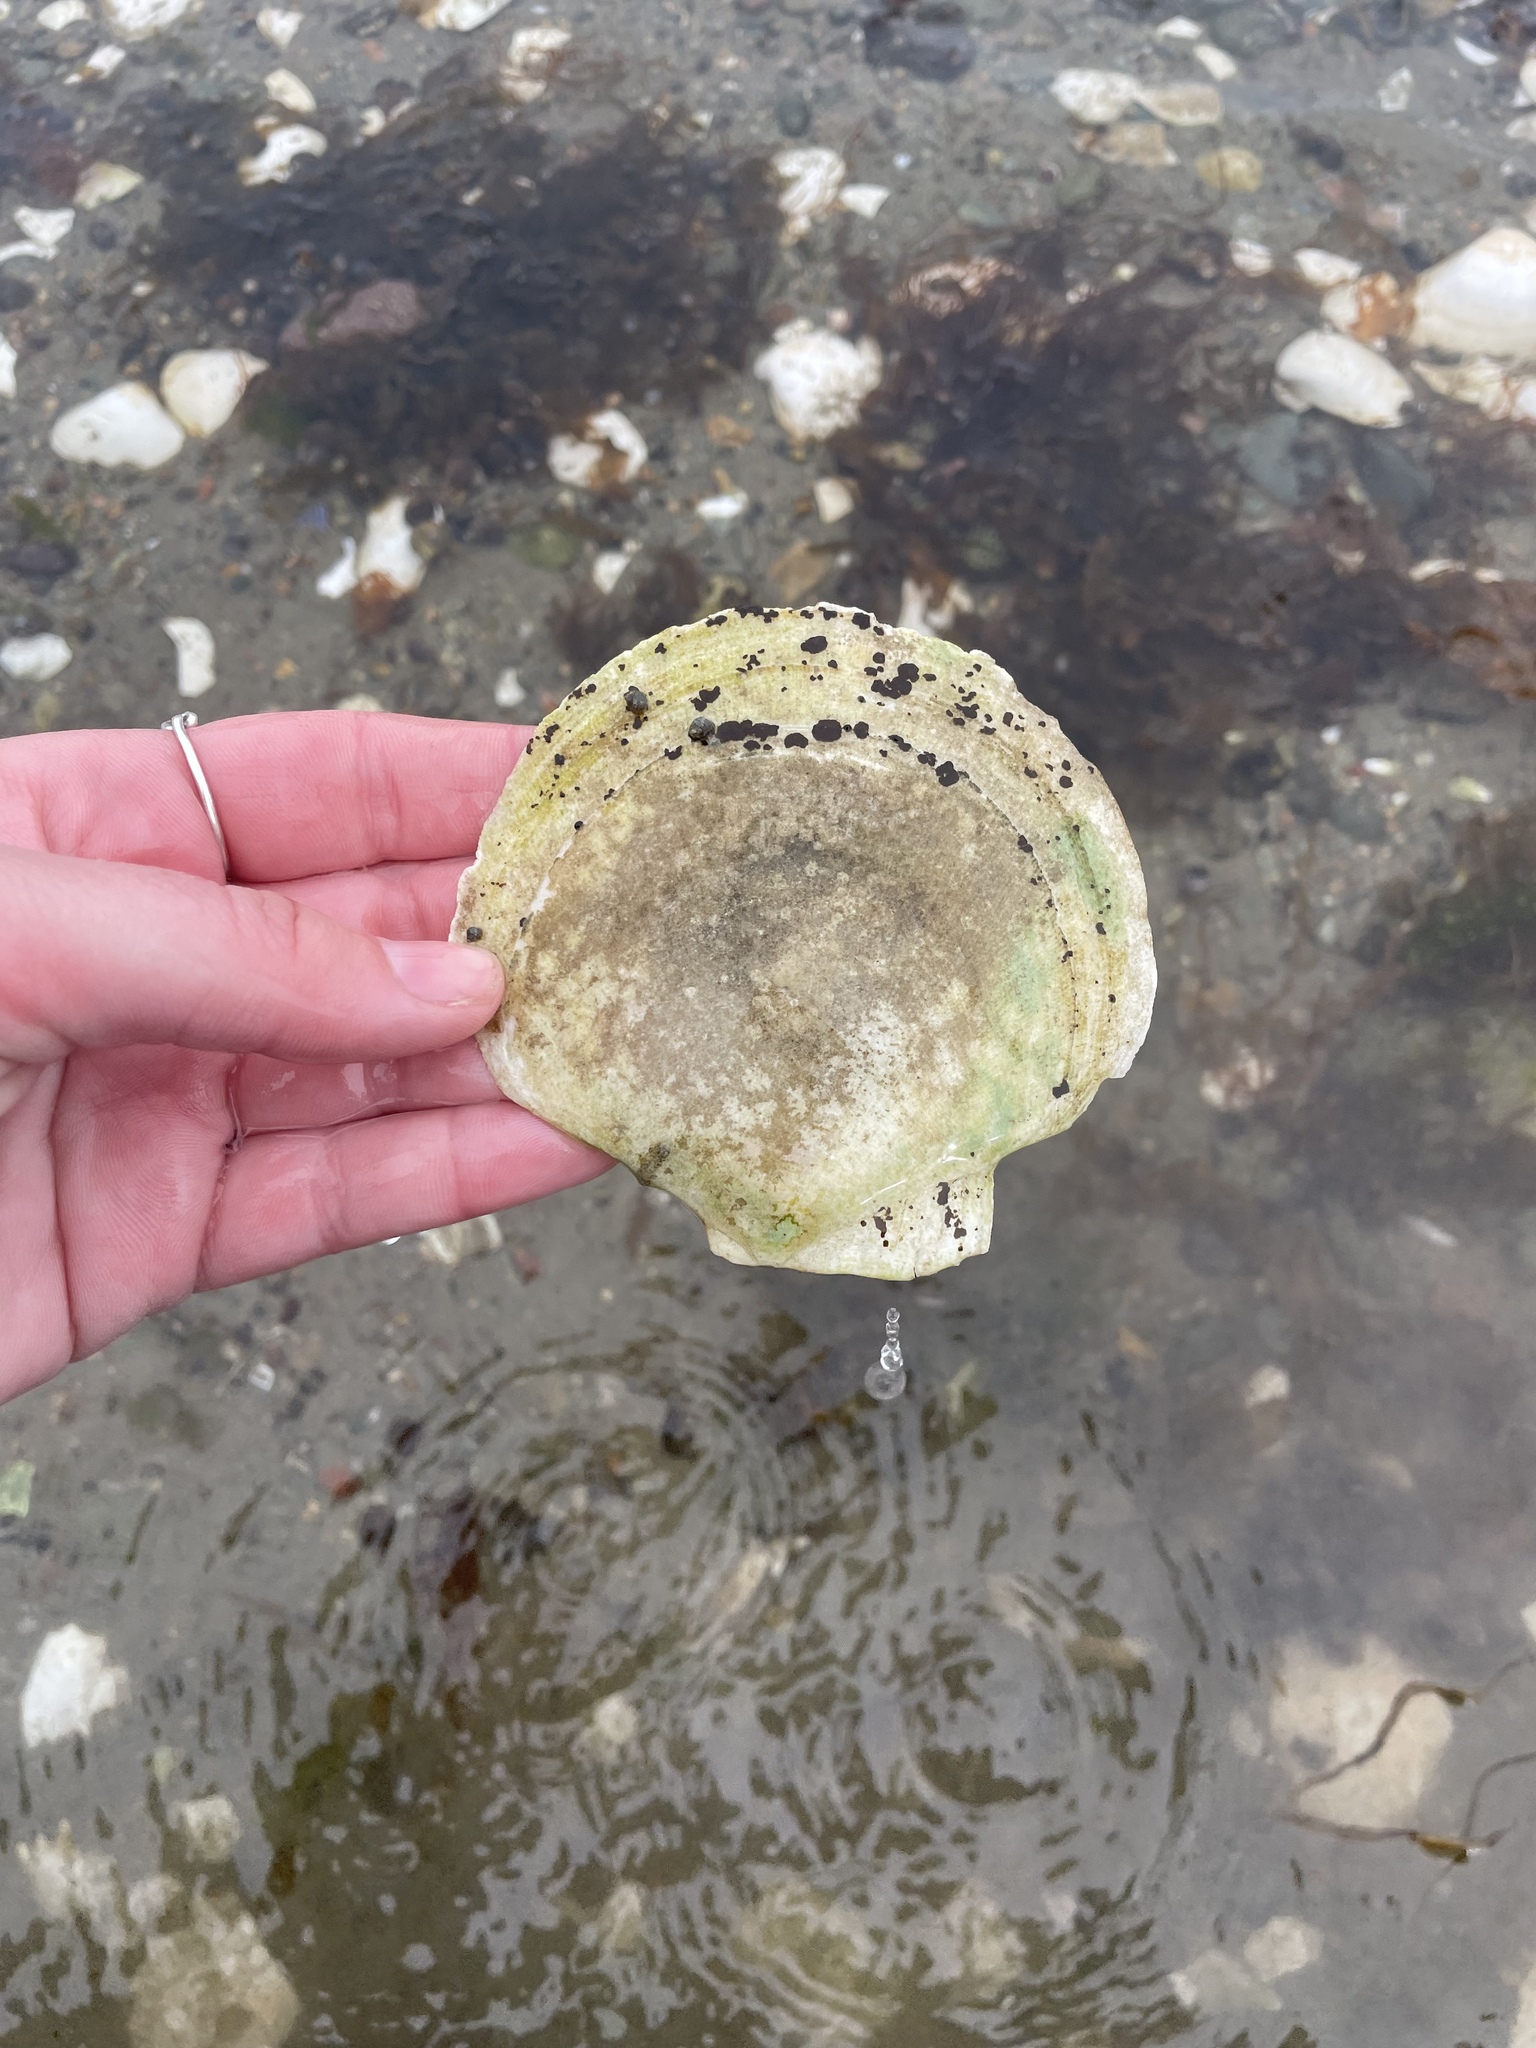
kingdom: Animalia
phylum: Mollusca
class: Bivalvia
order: Pectinida
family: Pectinidae
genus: Placopecten
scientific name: Placopecten magellanicus
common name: American sea scallop
